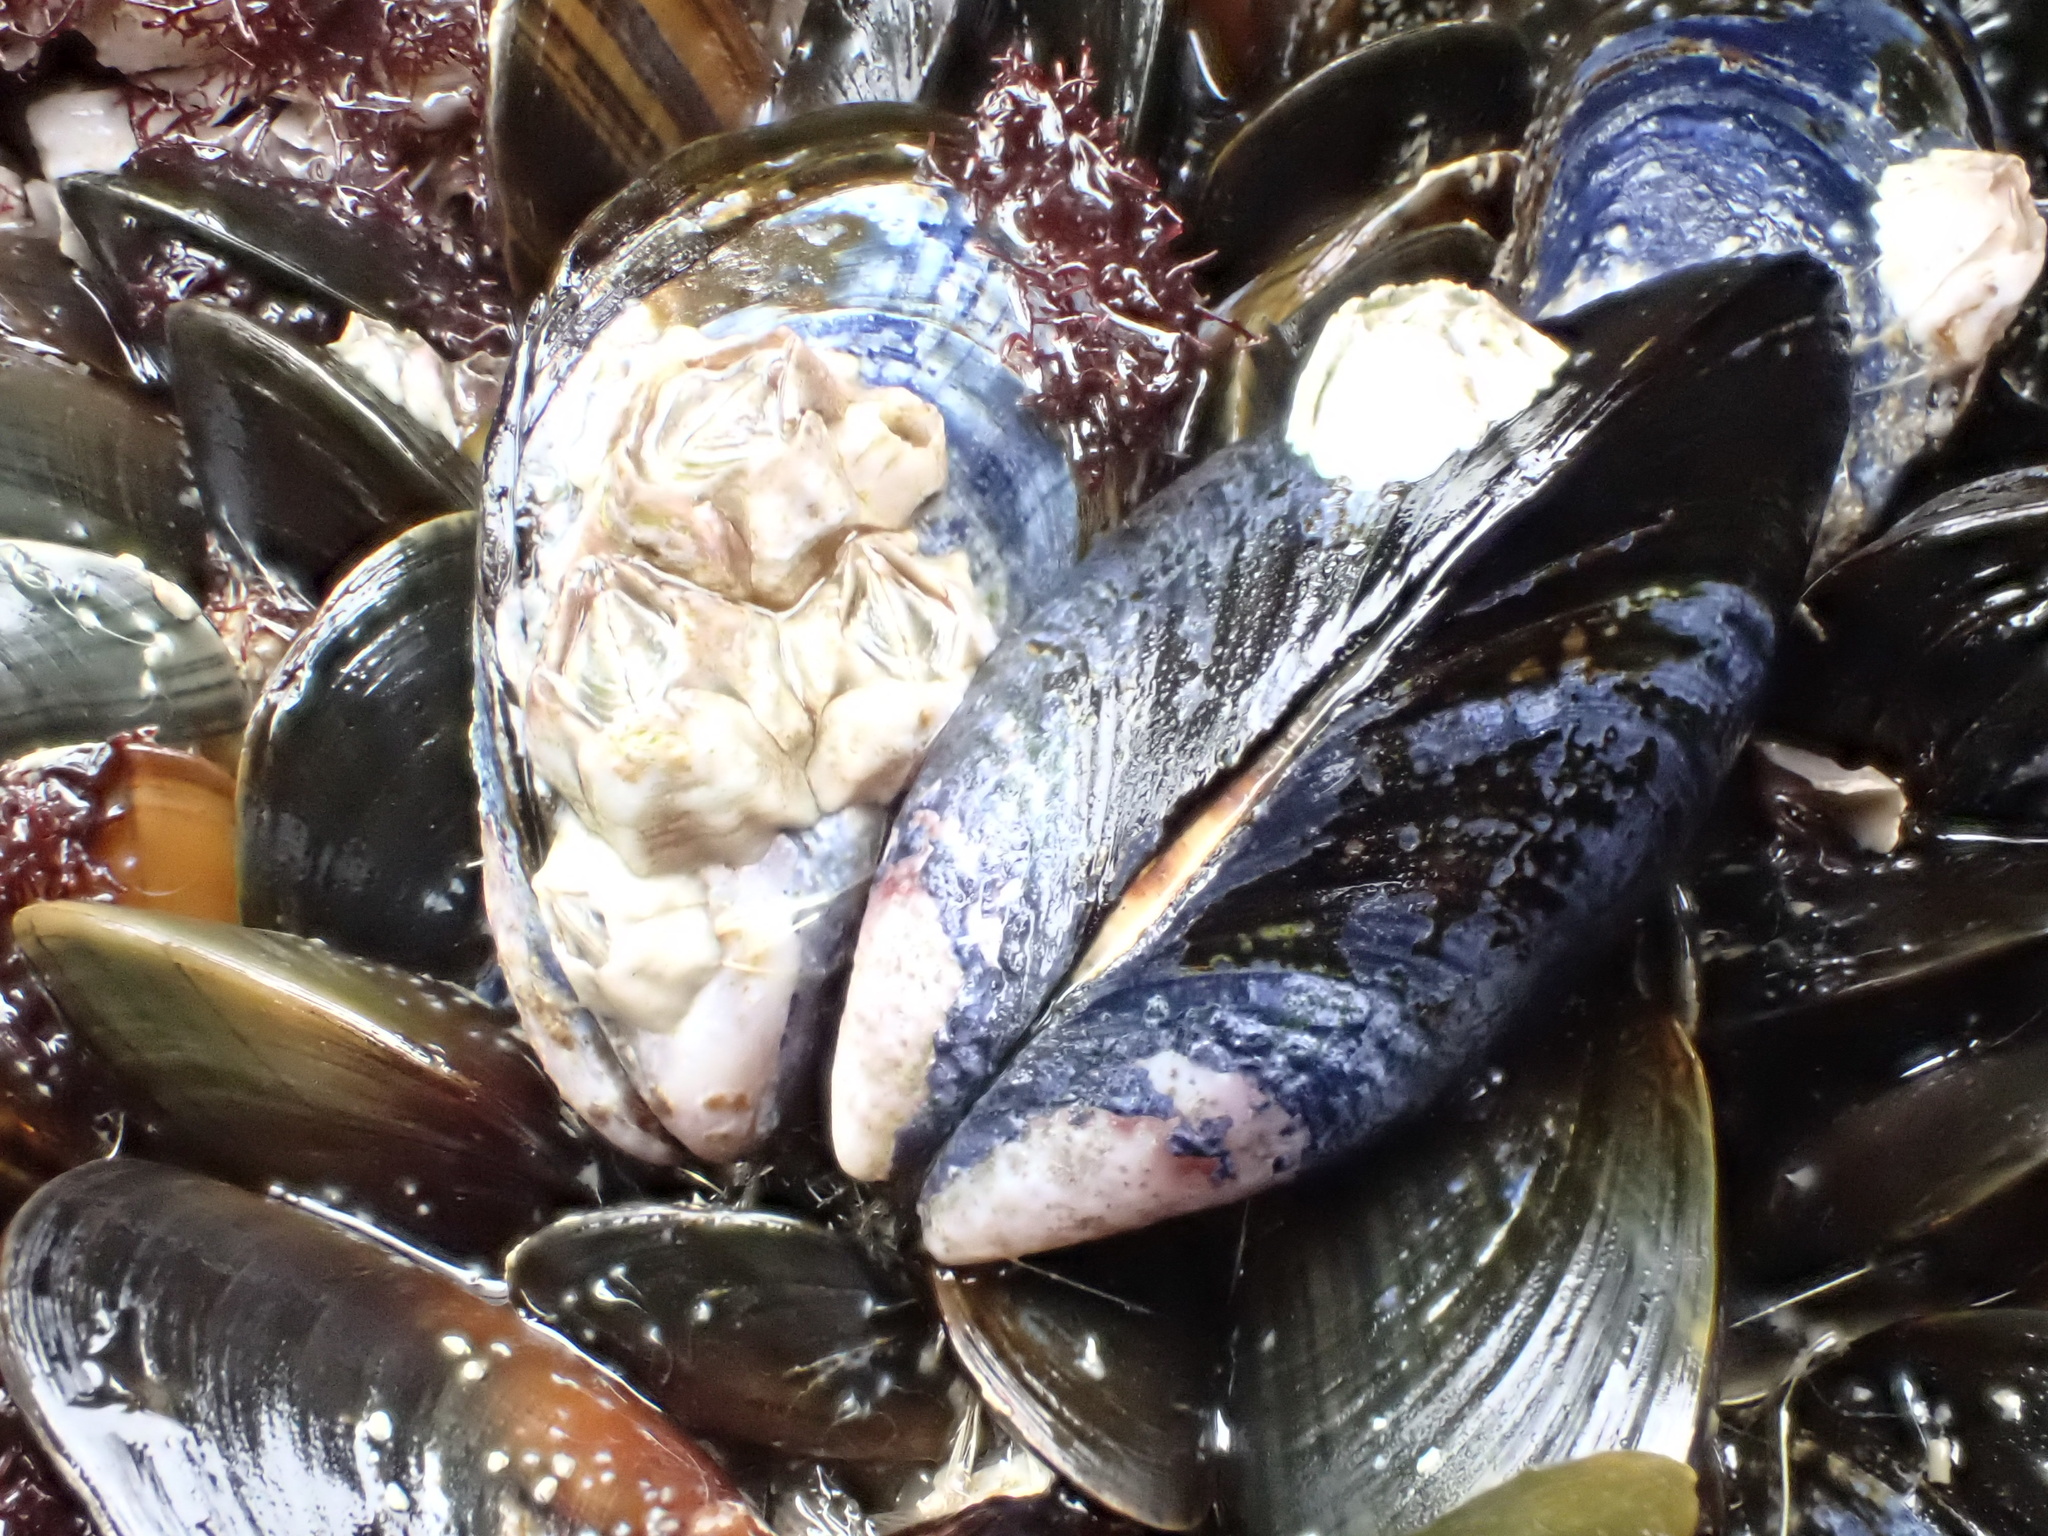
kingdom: Animalia
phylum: Mollusca
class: Bivalvia
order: Mytilida
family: Mytilidae
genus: Mytilus
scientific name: Mytilus edulis
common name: Blue mussel
